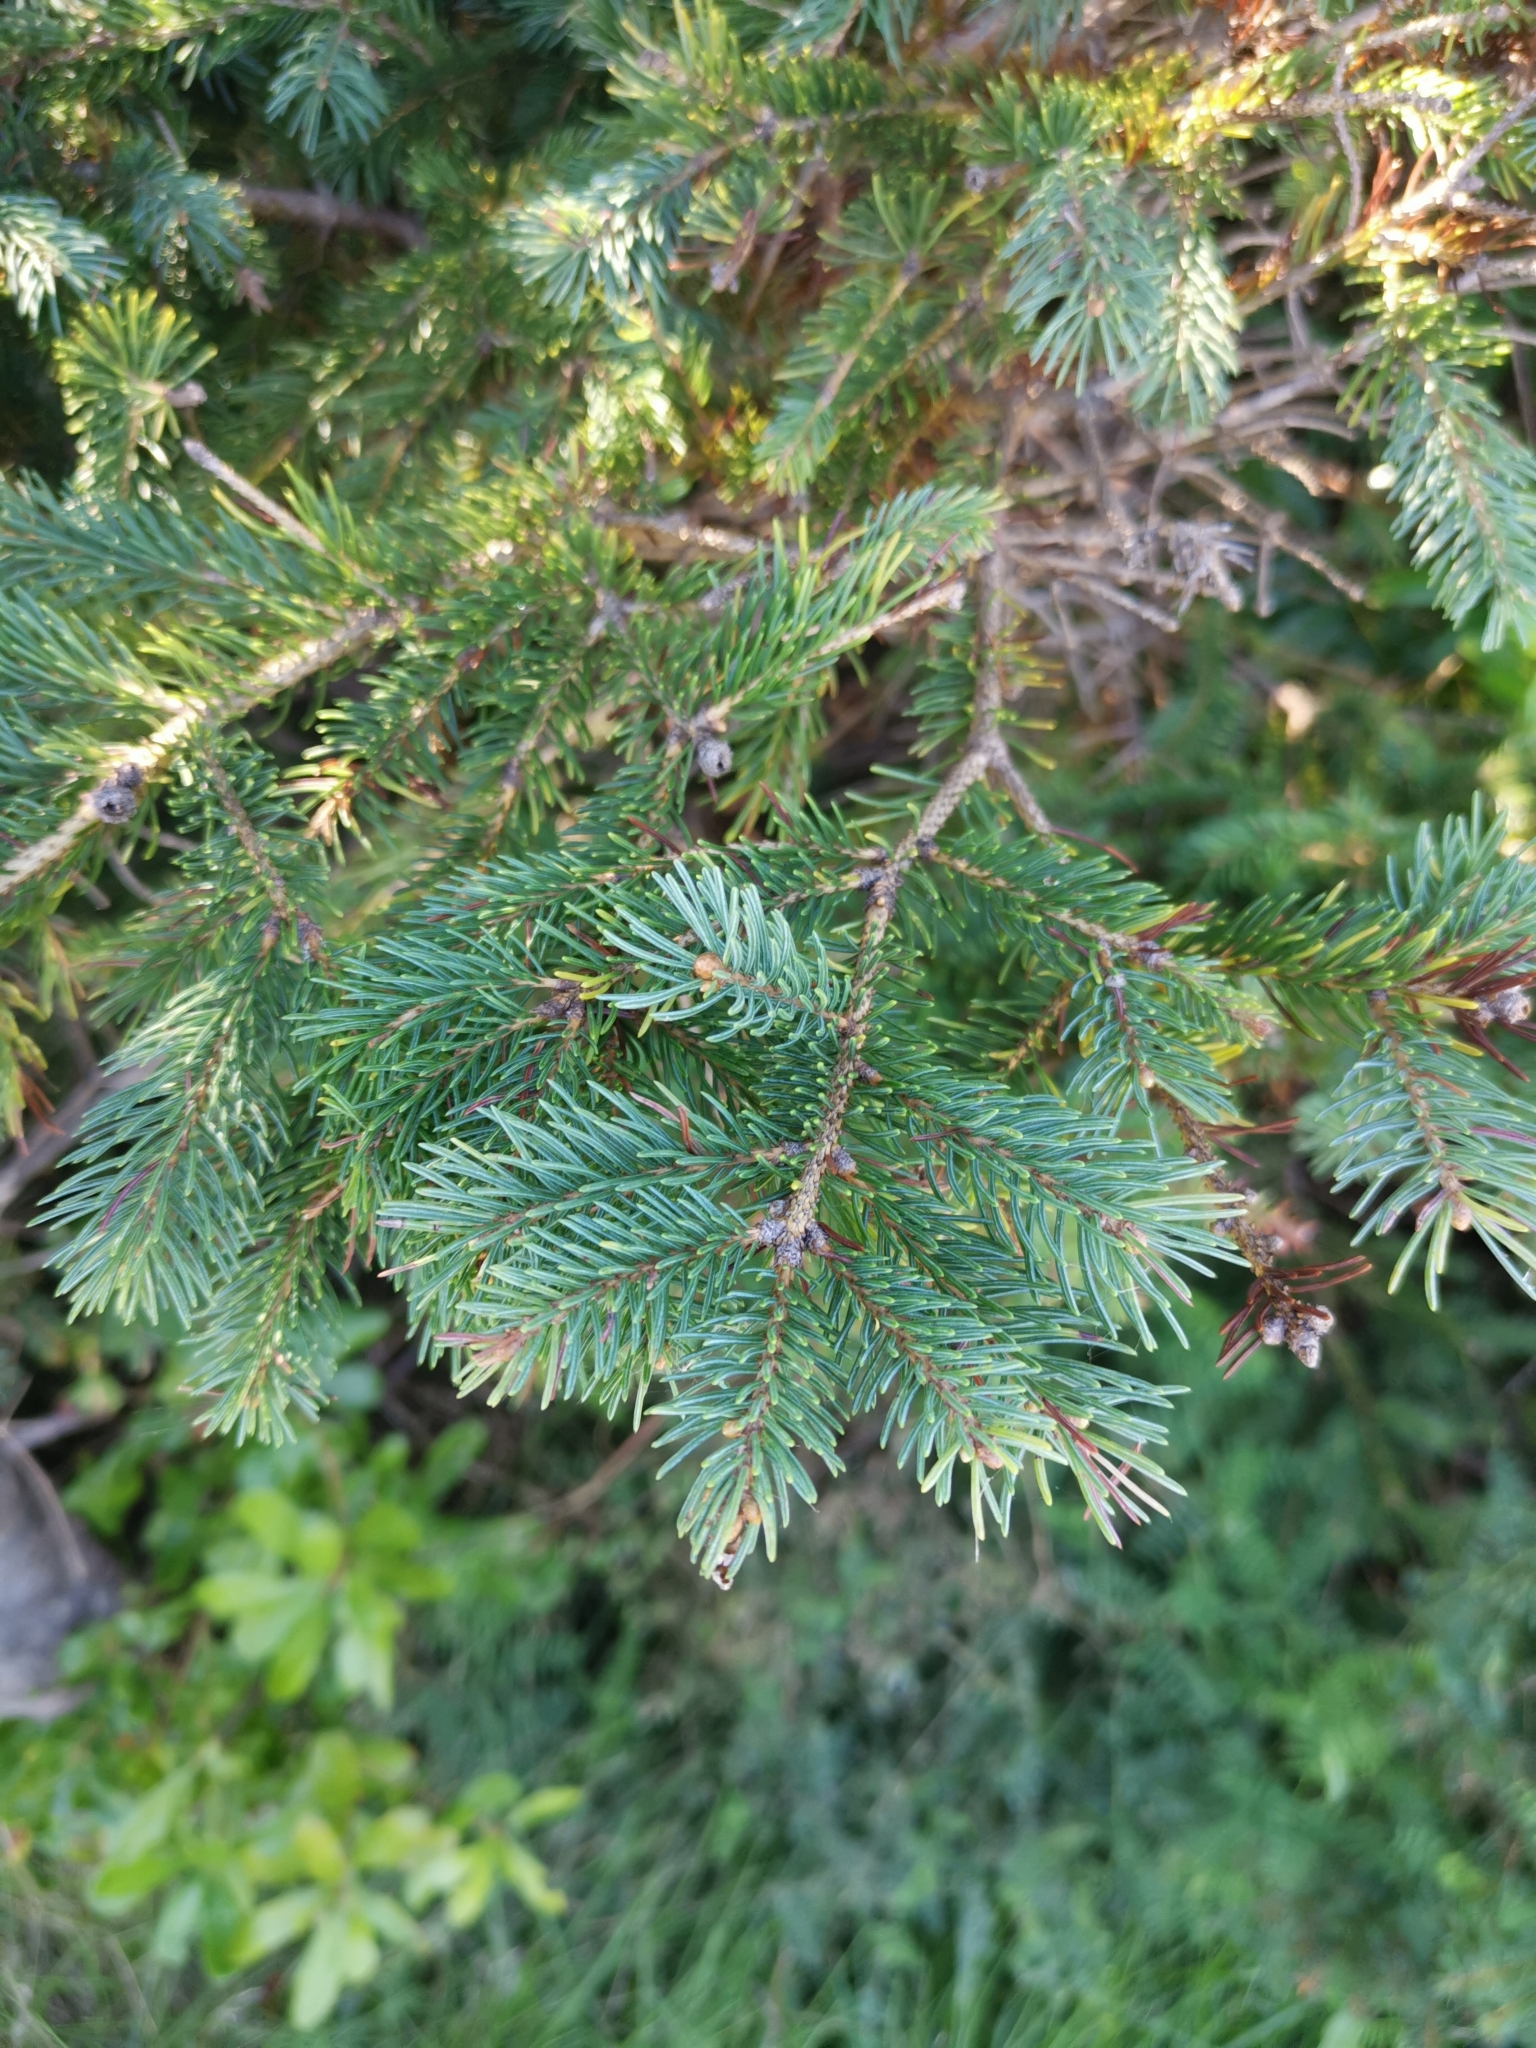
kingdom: Plantae
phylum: Tracheophyta
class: Pinopsida
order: Pinales
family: Pinaceae
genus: Picea
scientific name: Picea glauca
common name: White spruce
